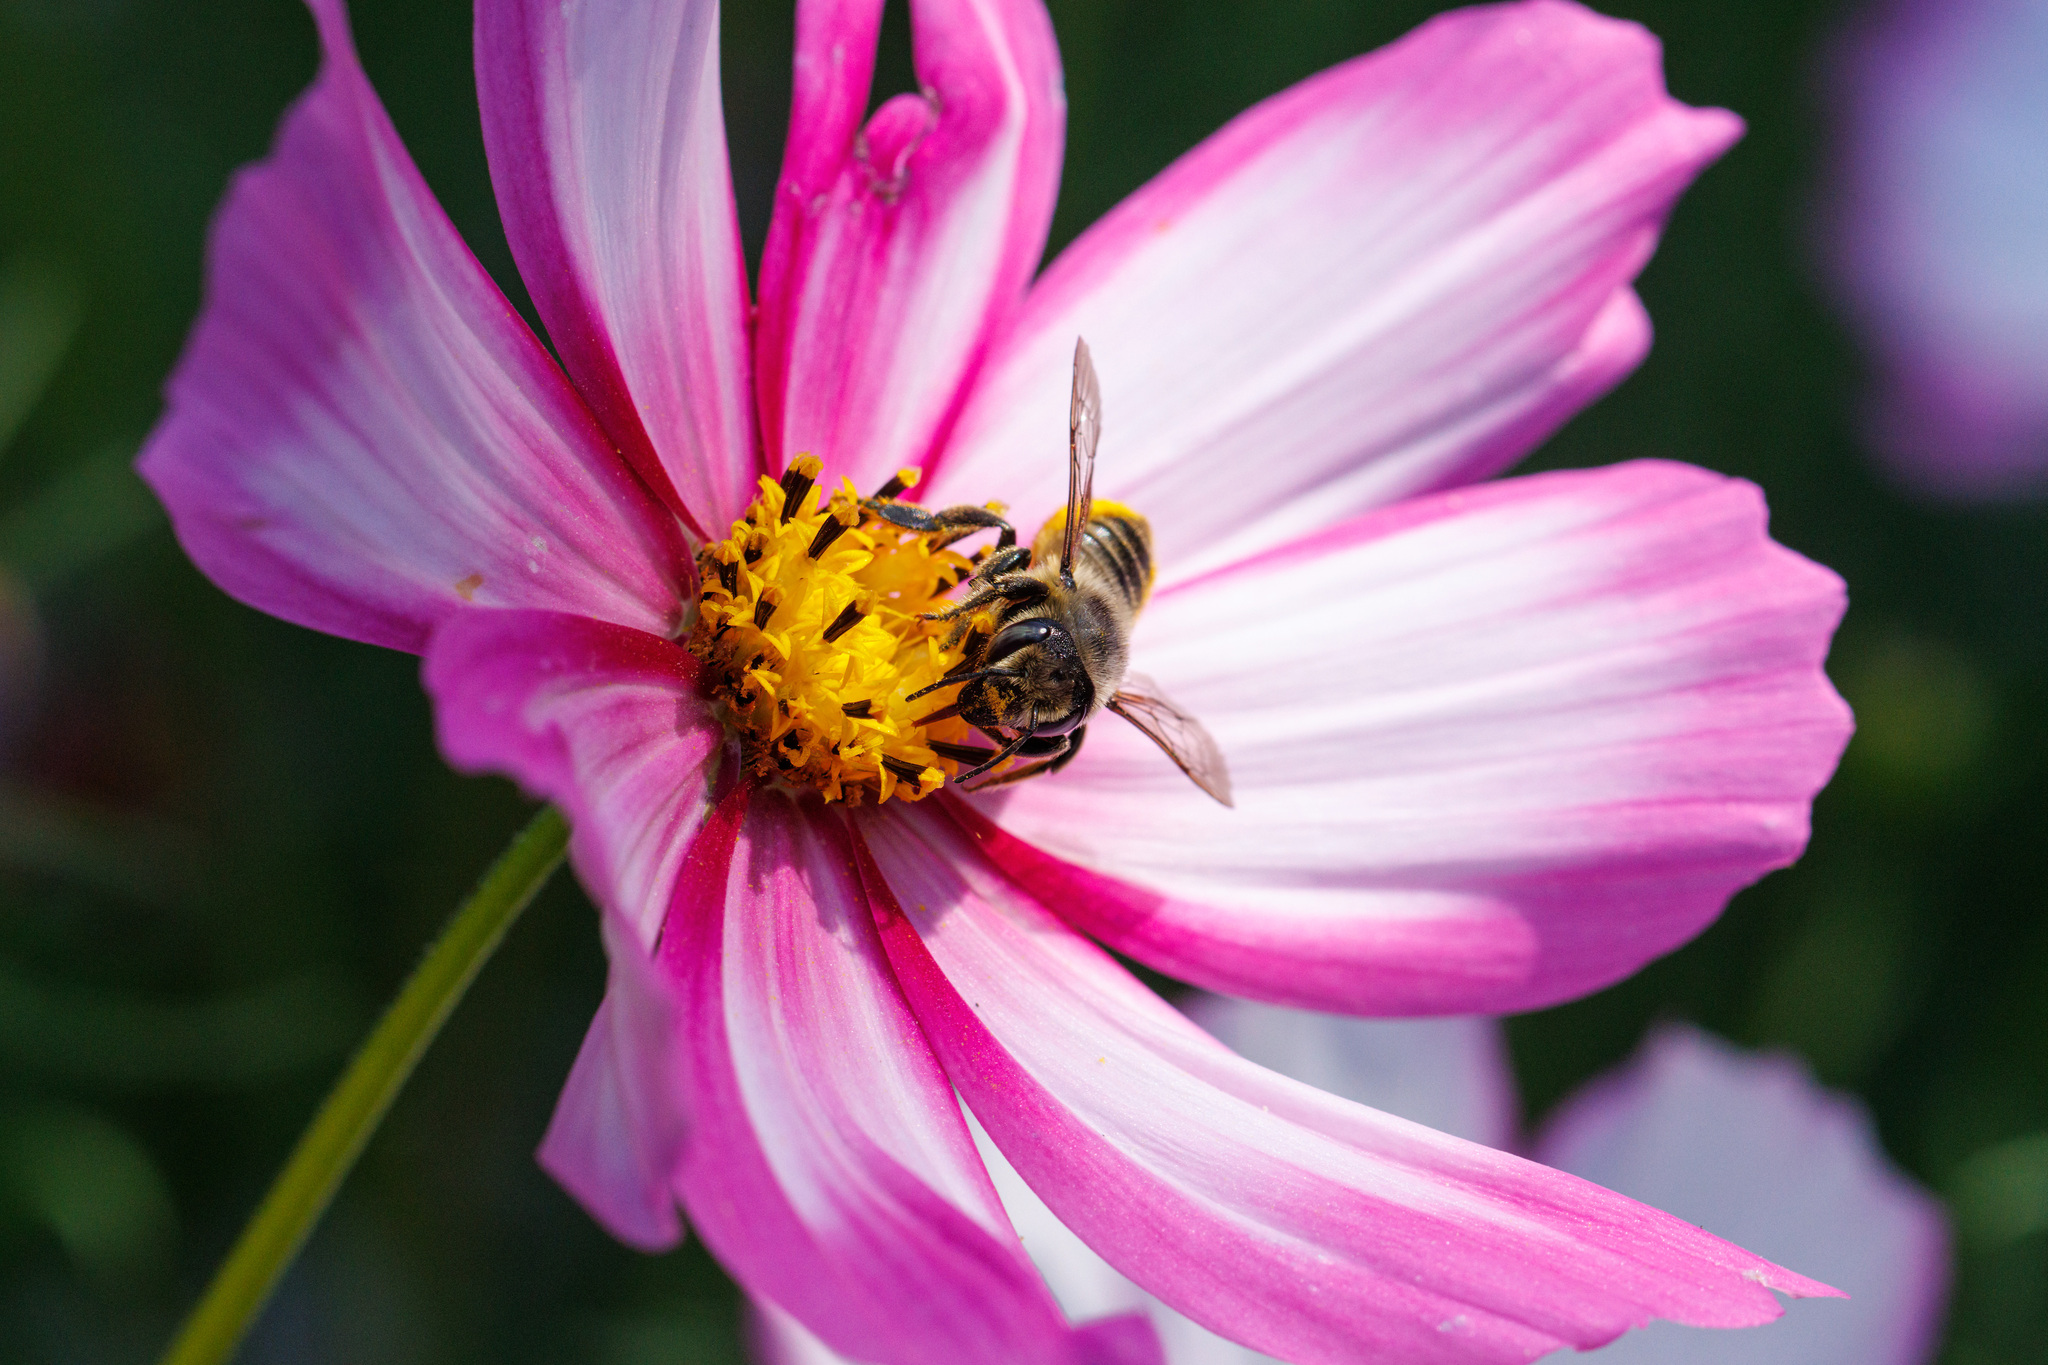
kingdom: Animalia
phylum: Arthropoda
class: Insecta
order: Hymenoptera
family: Megachilidae
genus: Megachile
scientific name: Megachile perihirta
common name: Western leafcutter
